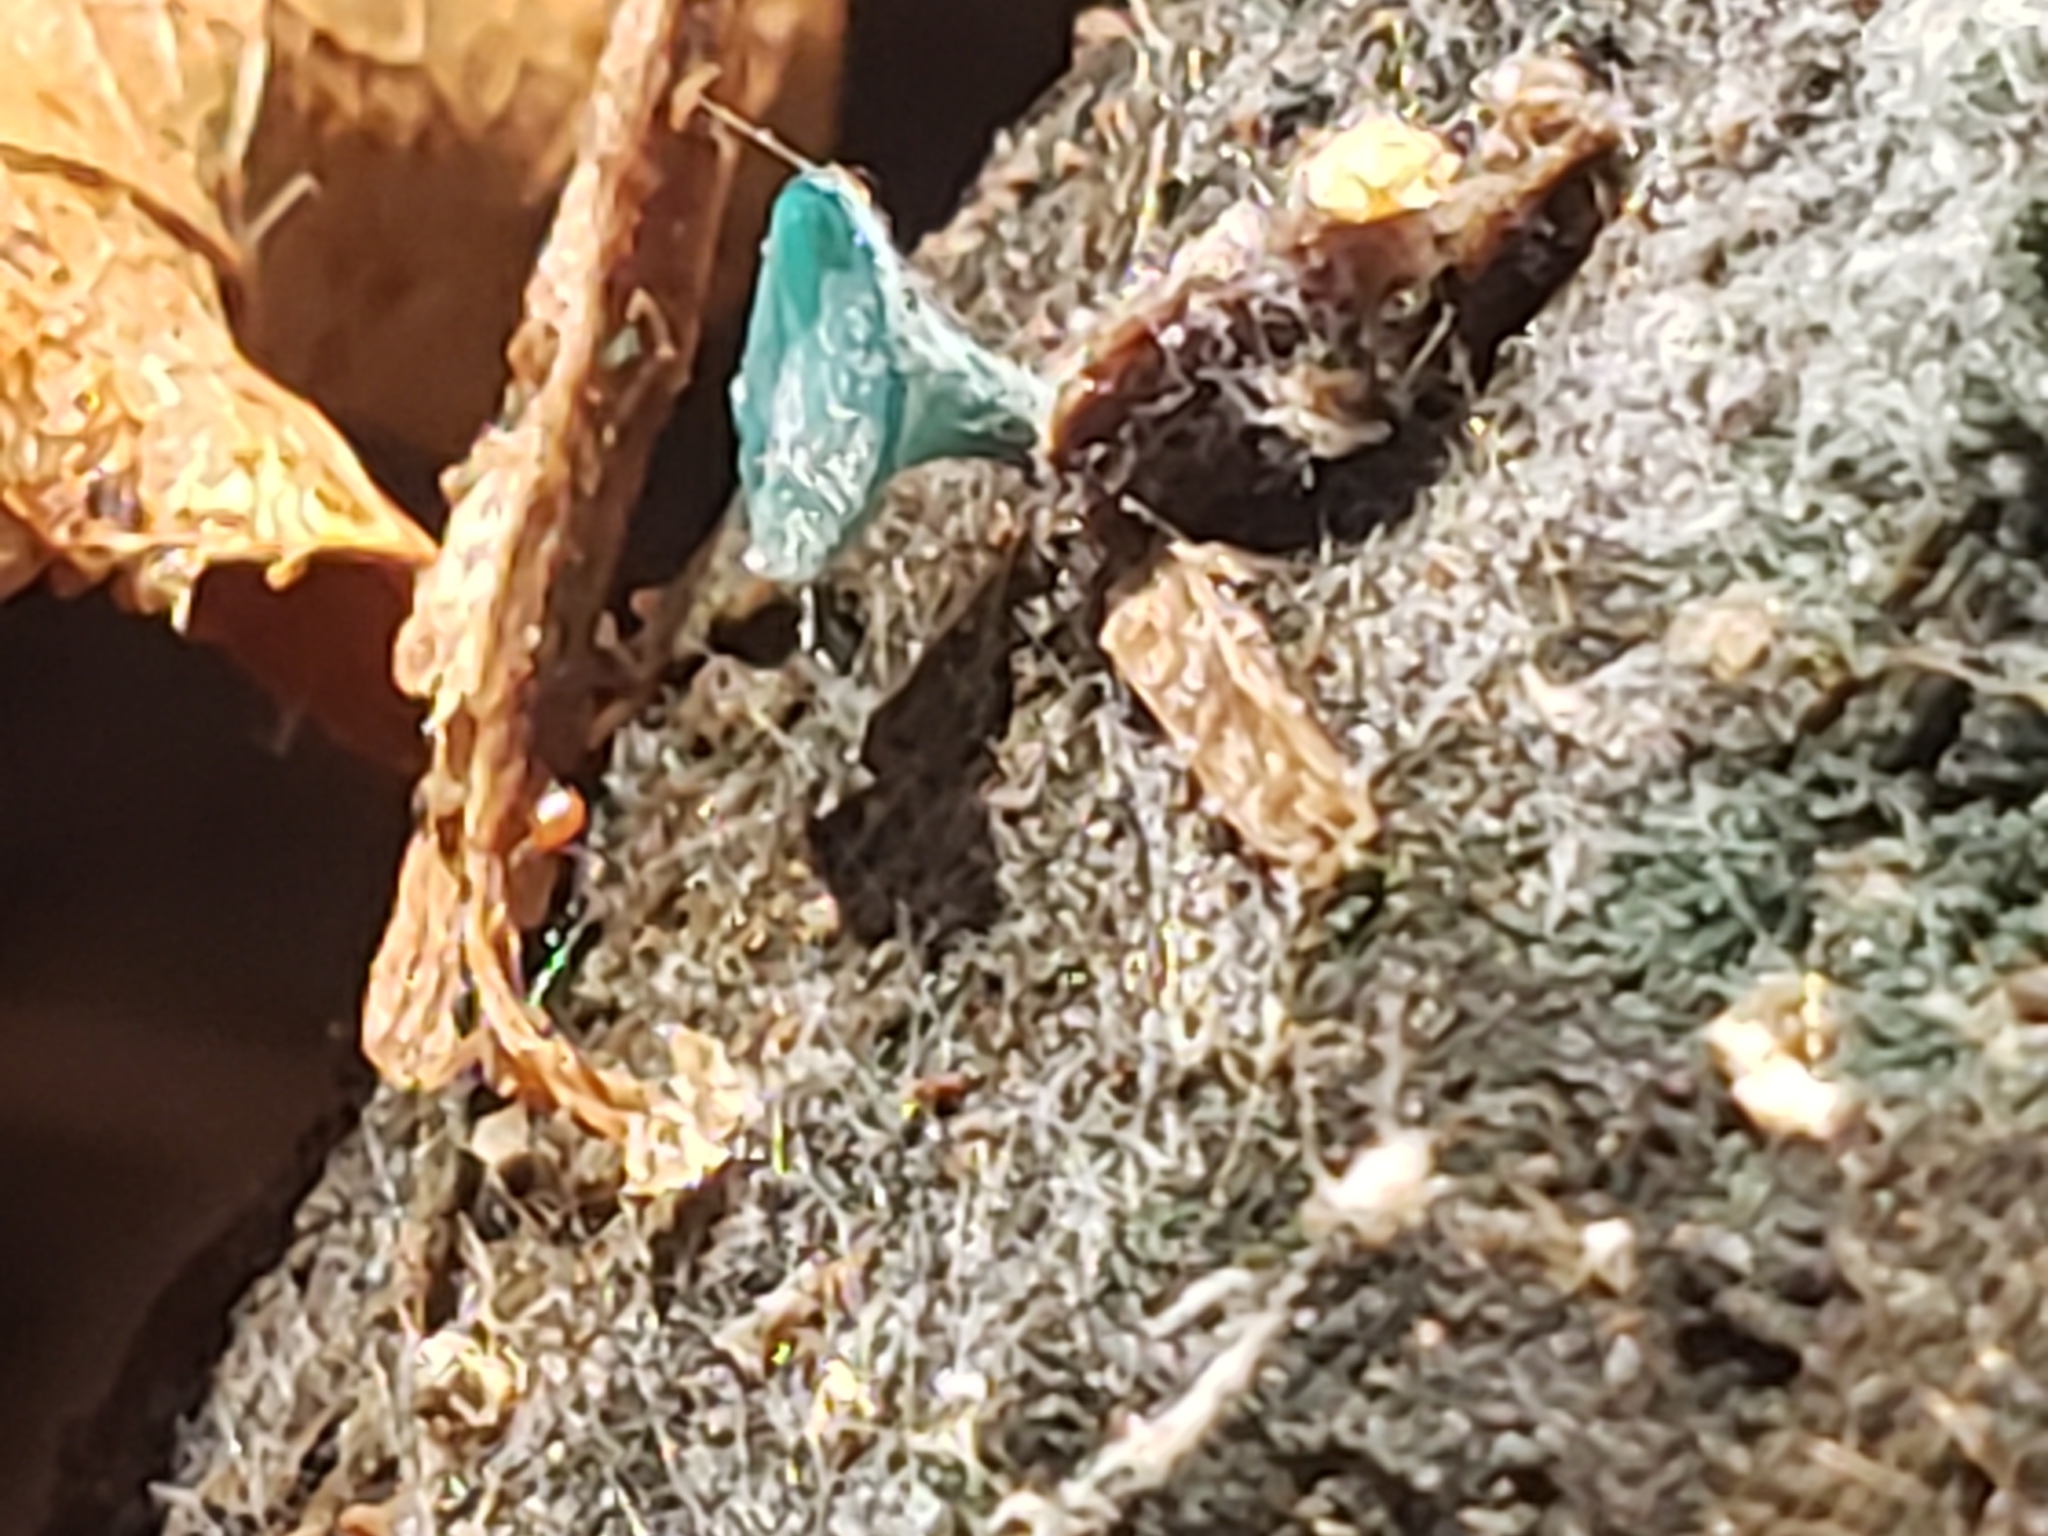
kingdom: Fungi
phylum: Ascomycota
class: Leotiomycetes
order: Helotiales
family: Chlorociboriaceae
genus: Chlorociboria
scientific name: Chlorociboria aeruginascens
